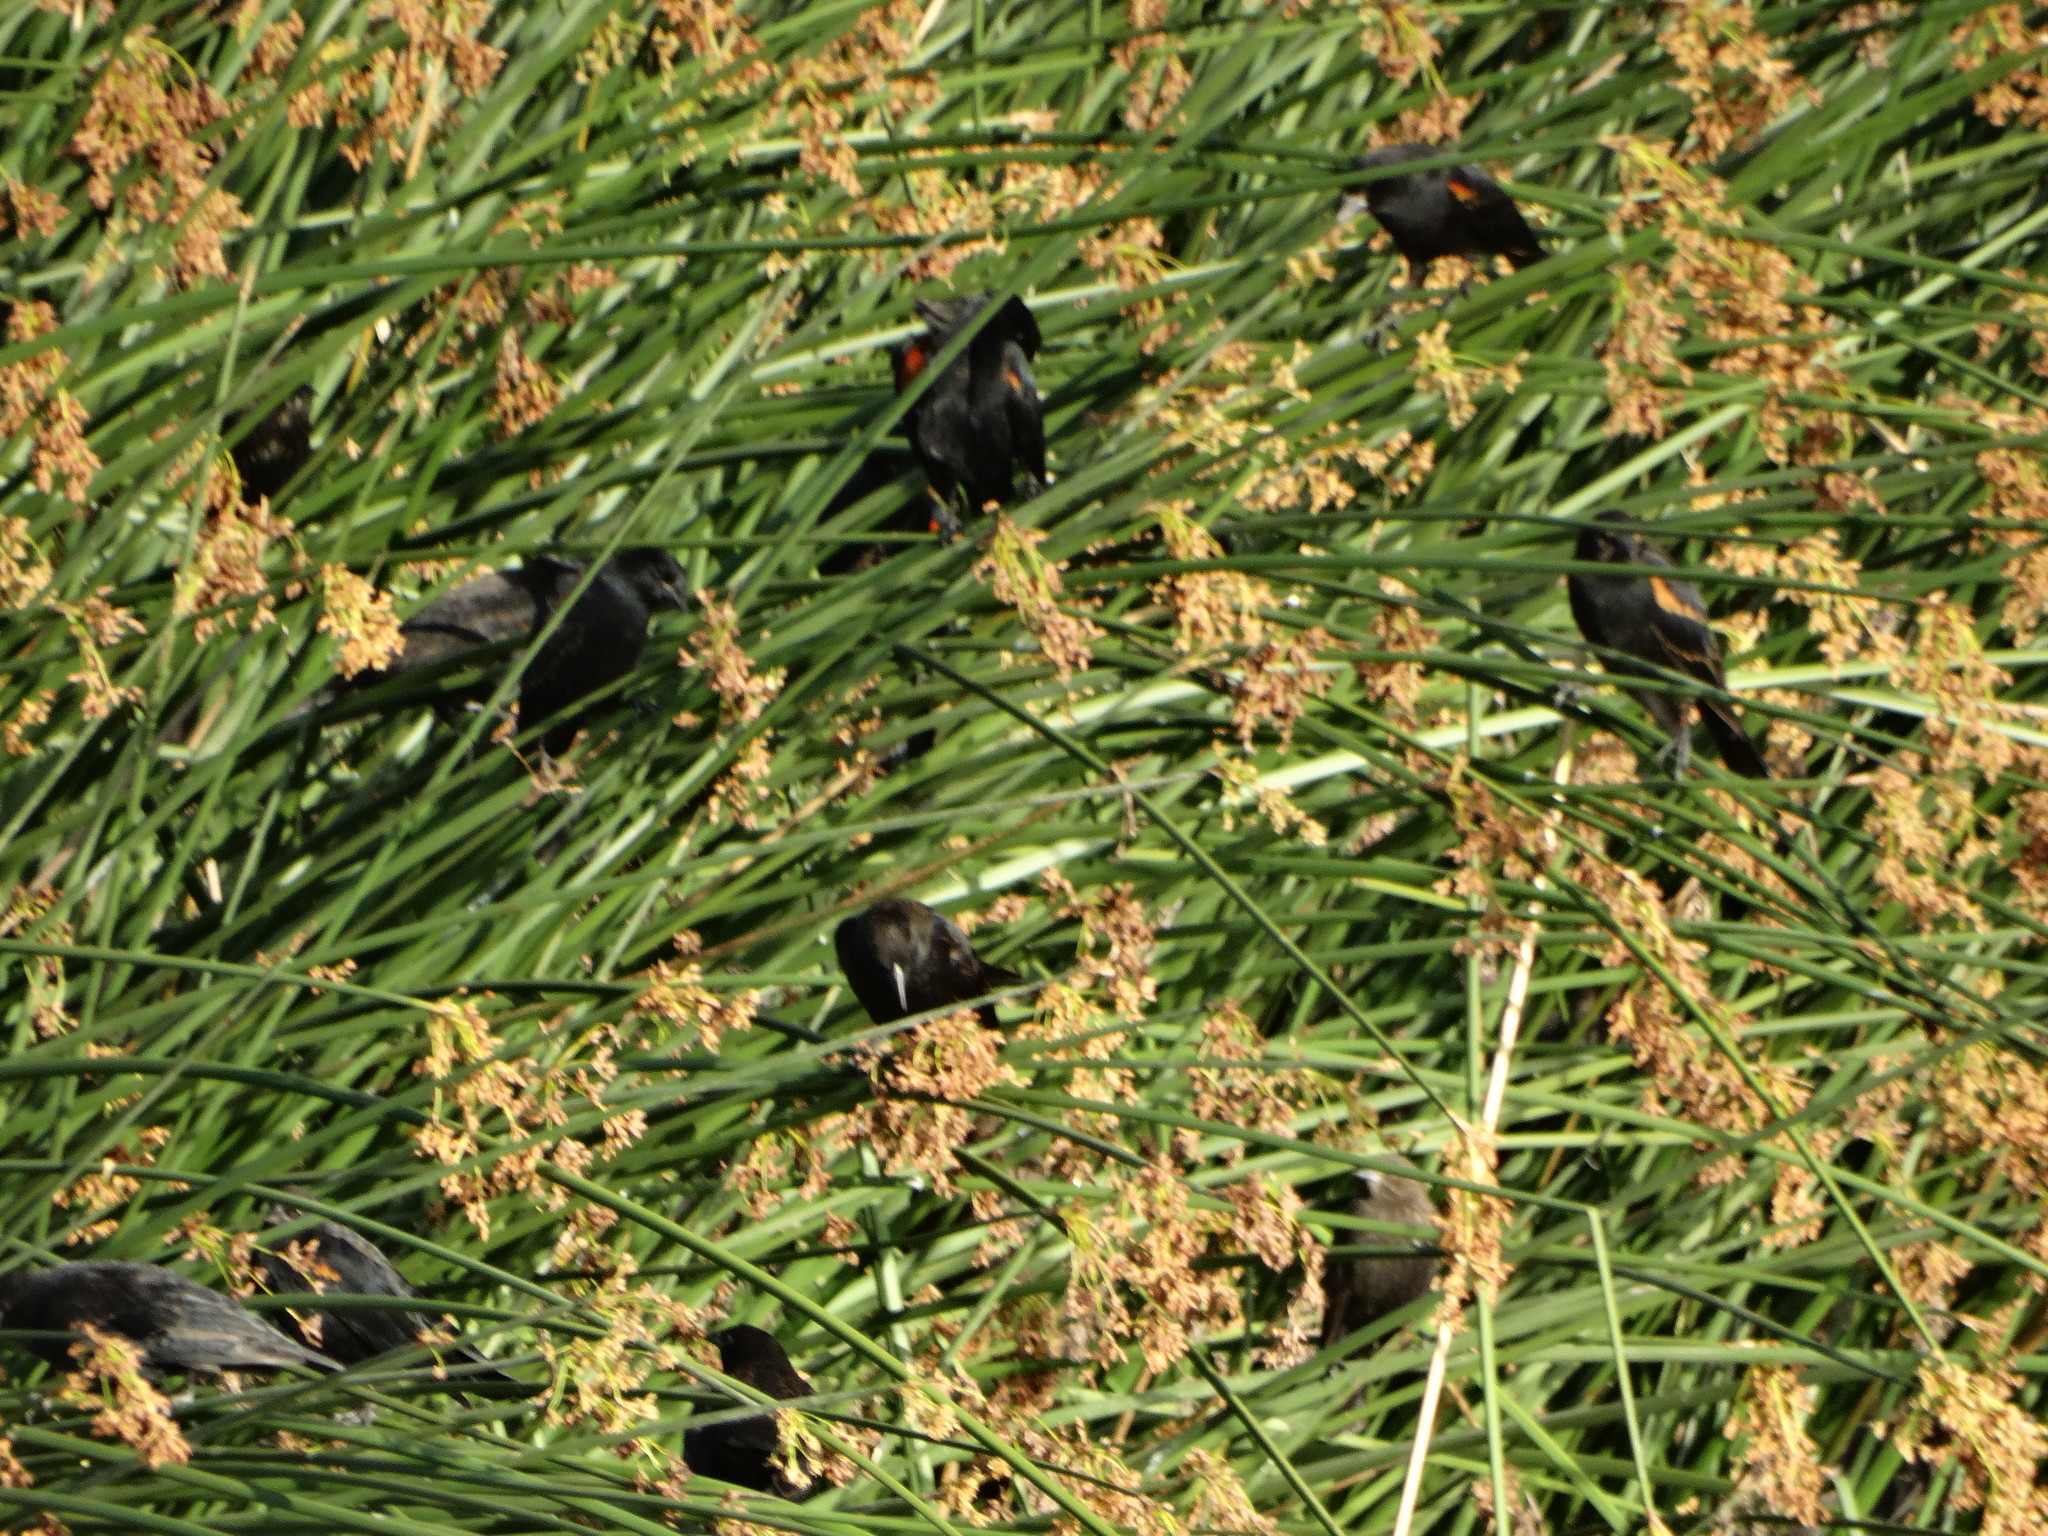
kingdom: Animalia
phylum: Chordata
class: Aves
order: Passeriformes
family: Icteridae
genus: Agelaius
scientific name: Agelaius phoeniceus
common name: Red-winged blackbird
